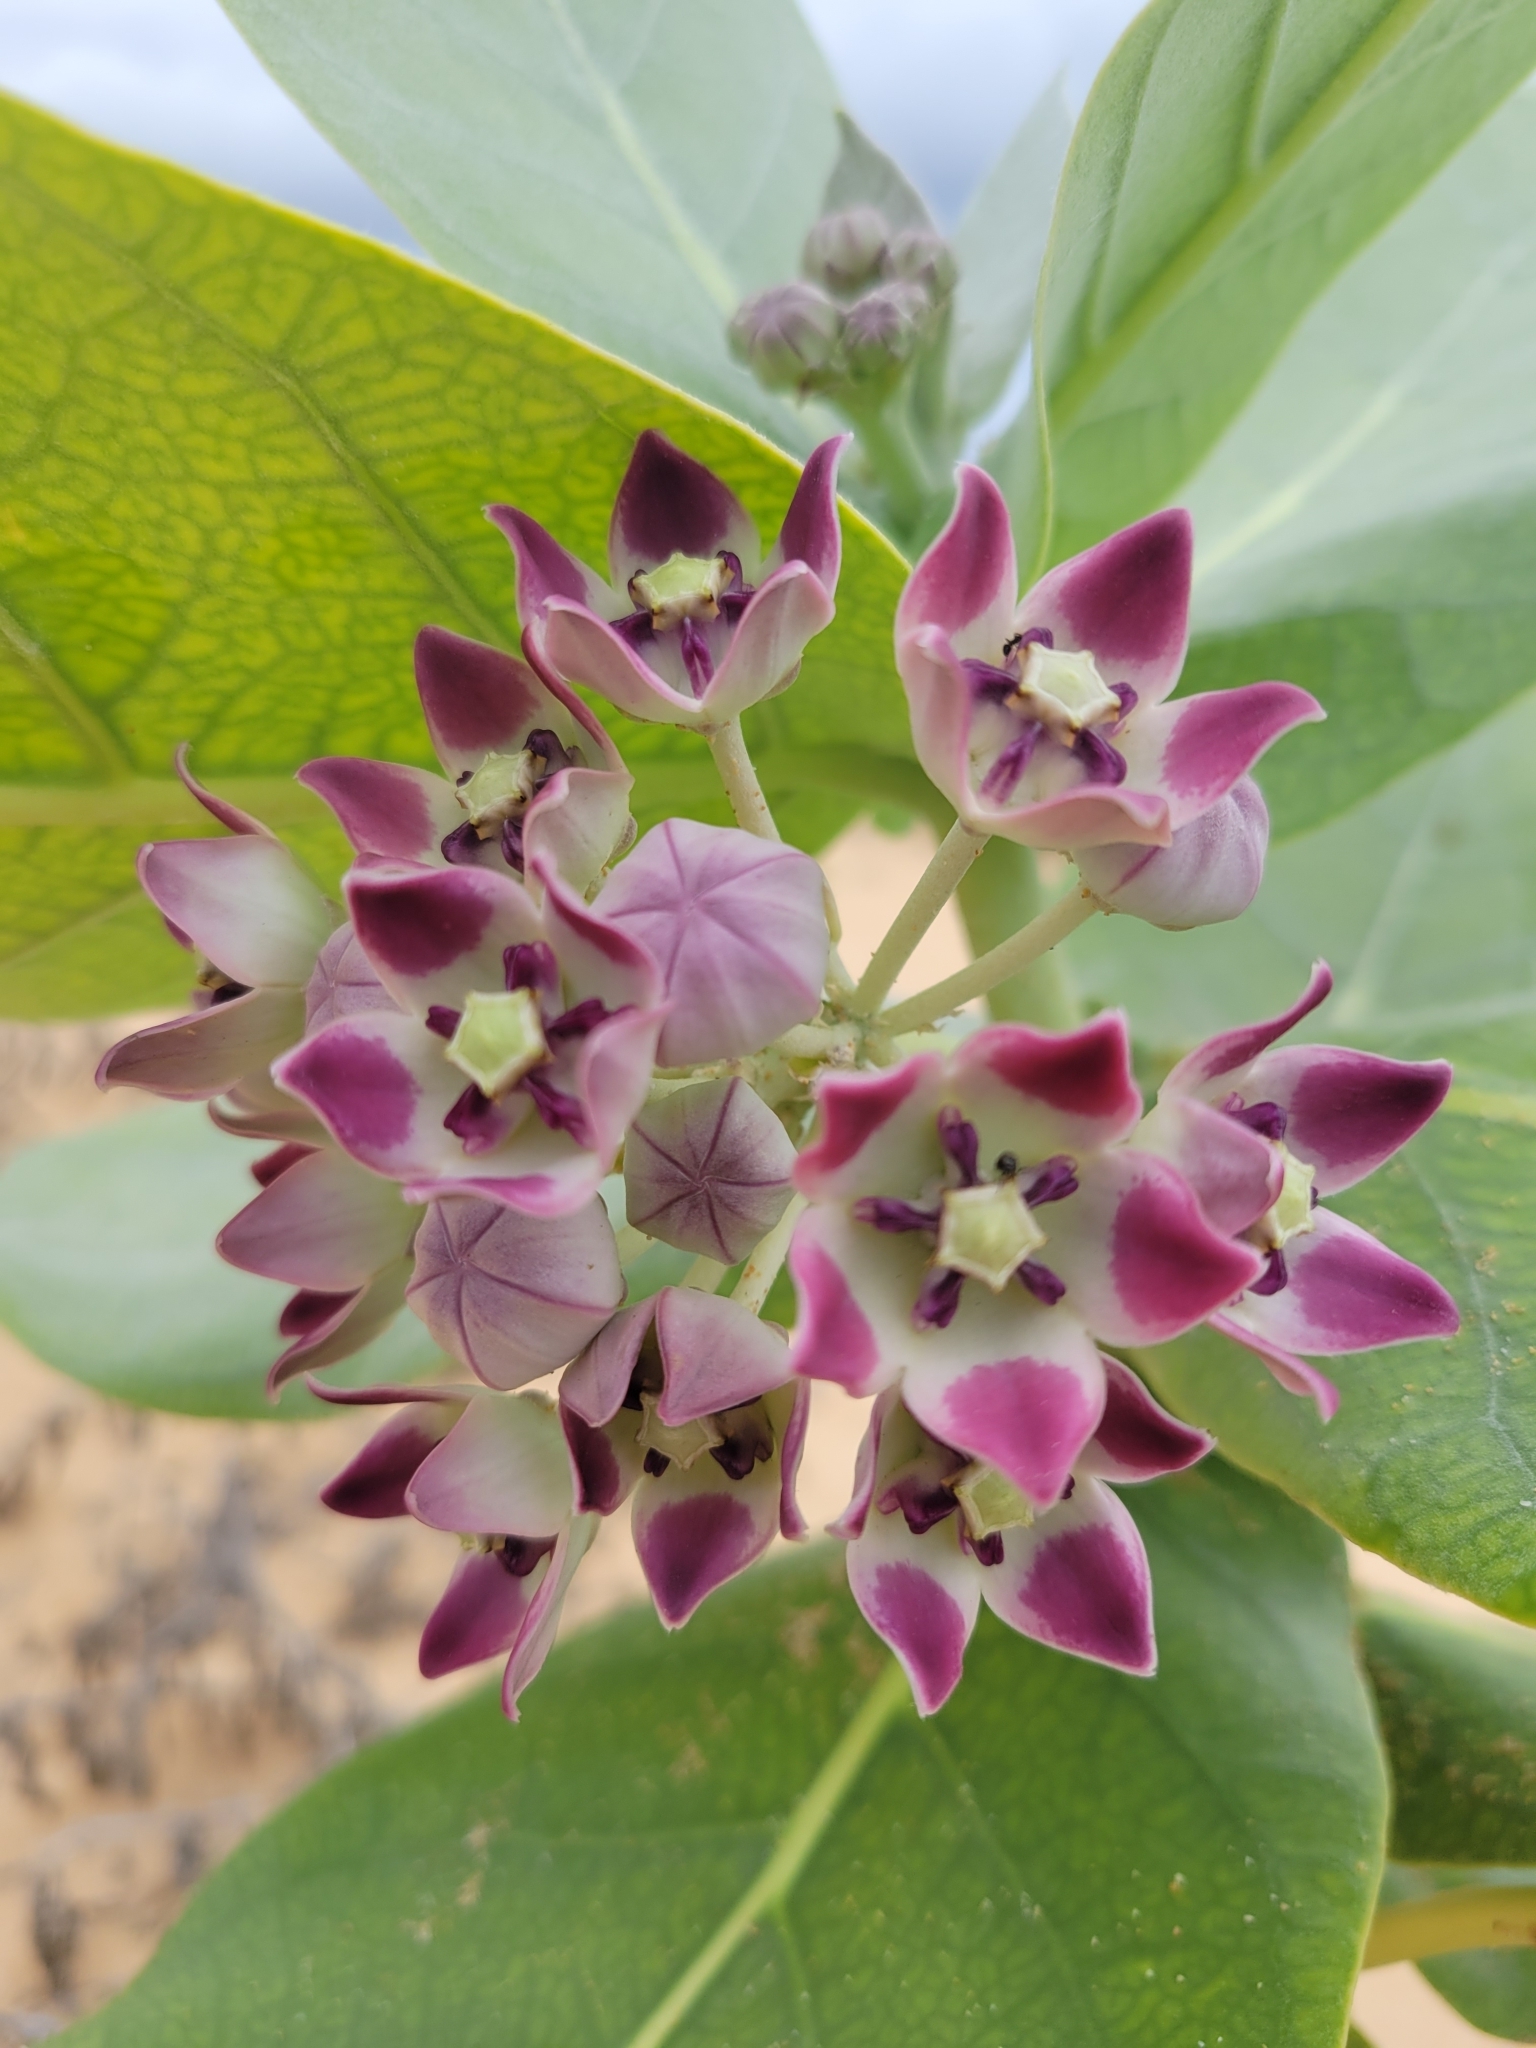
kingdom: Plantae
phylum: Tracheophyta
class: Magnoliopsida
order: Gentianales
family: Apocynaceae
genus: Calotropis
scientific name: Calotropis procera
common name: Roostertree
